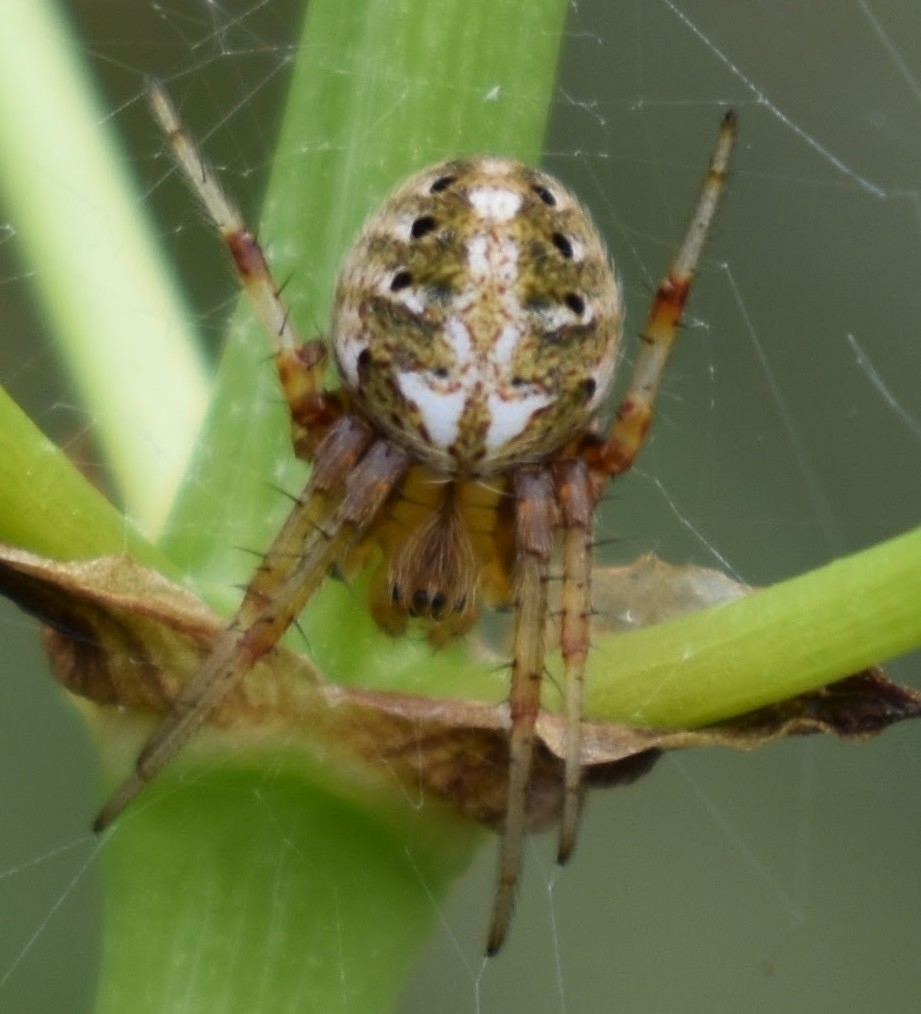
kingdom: Animalia
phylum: Arthropoda
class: Arachnida
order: Araneae
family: Araneidae
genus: Neoscona
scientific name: Neoscona arabesca
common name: Orb weavers
